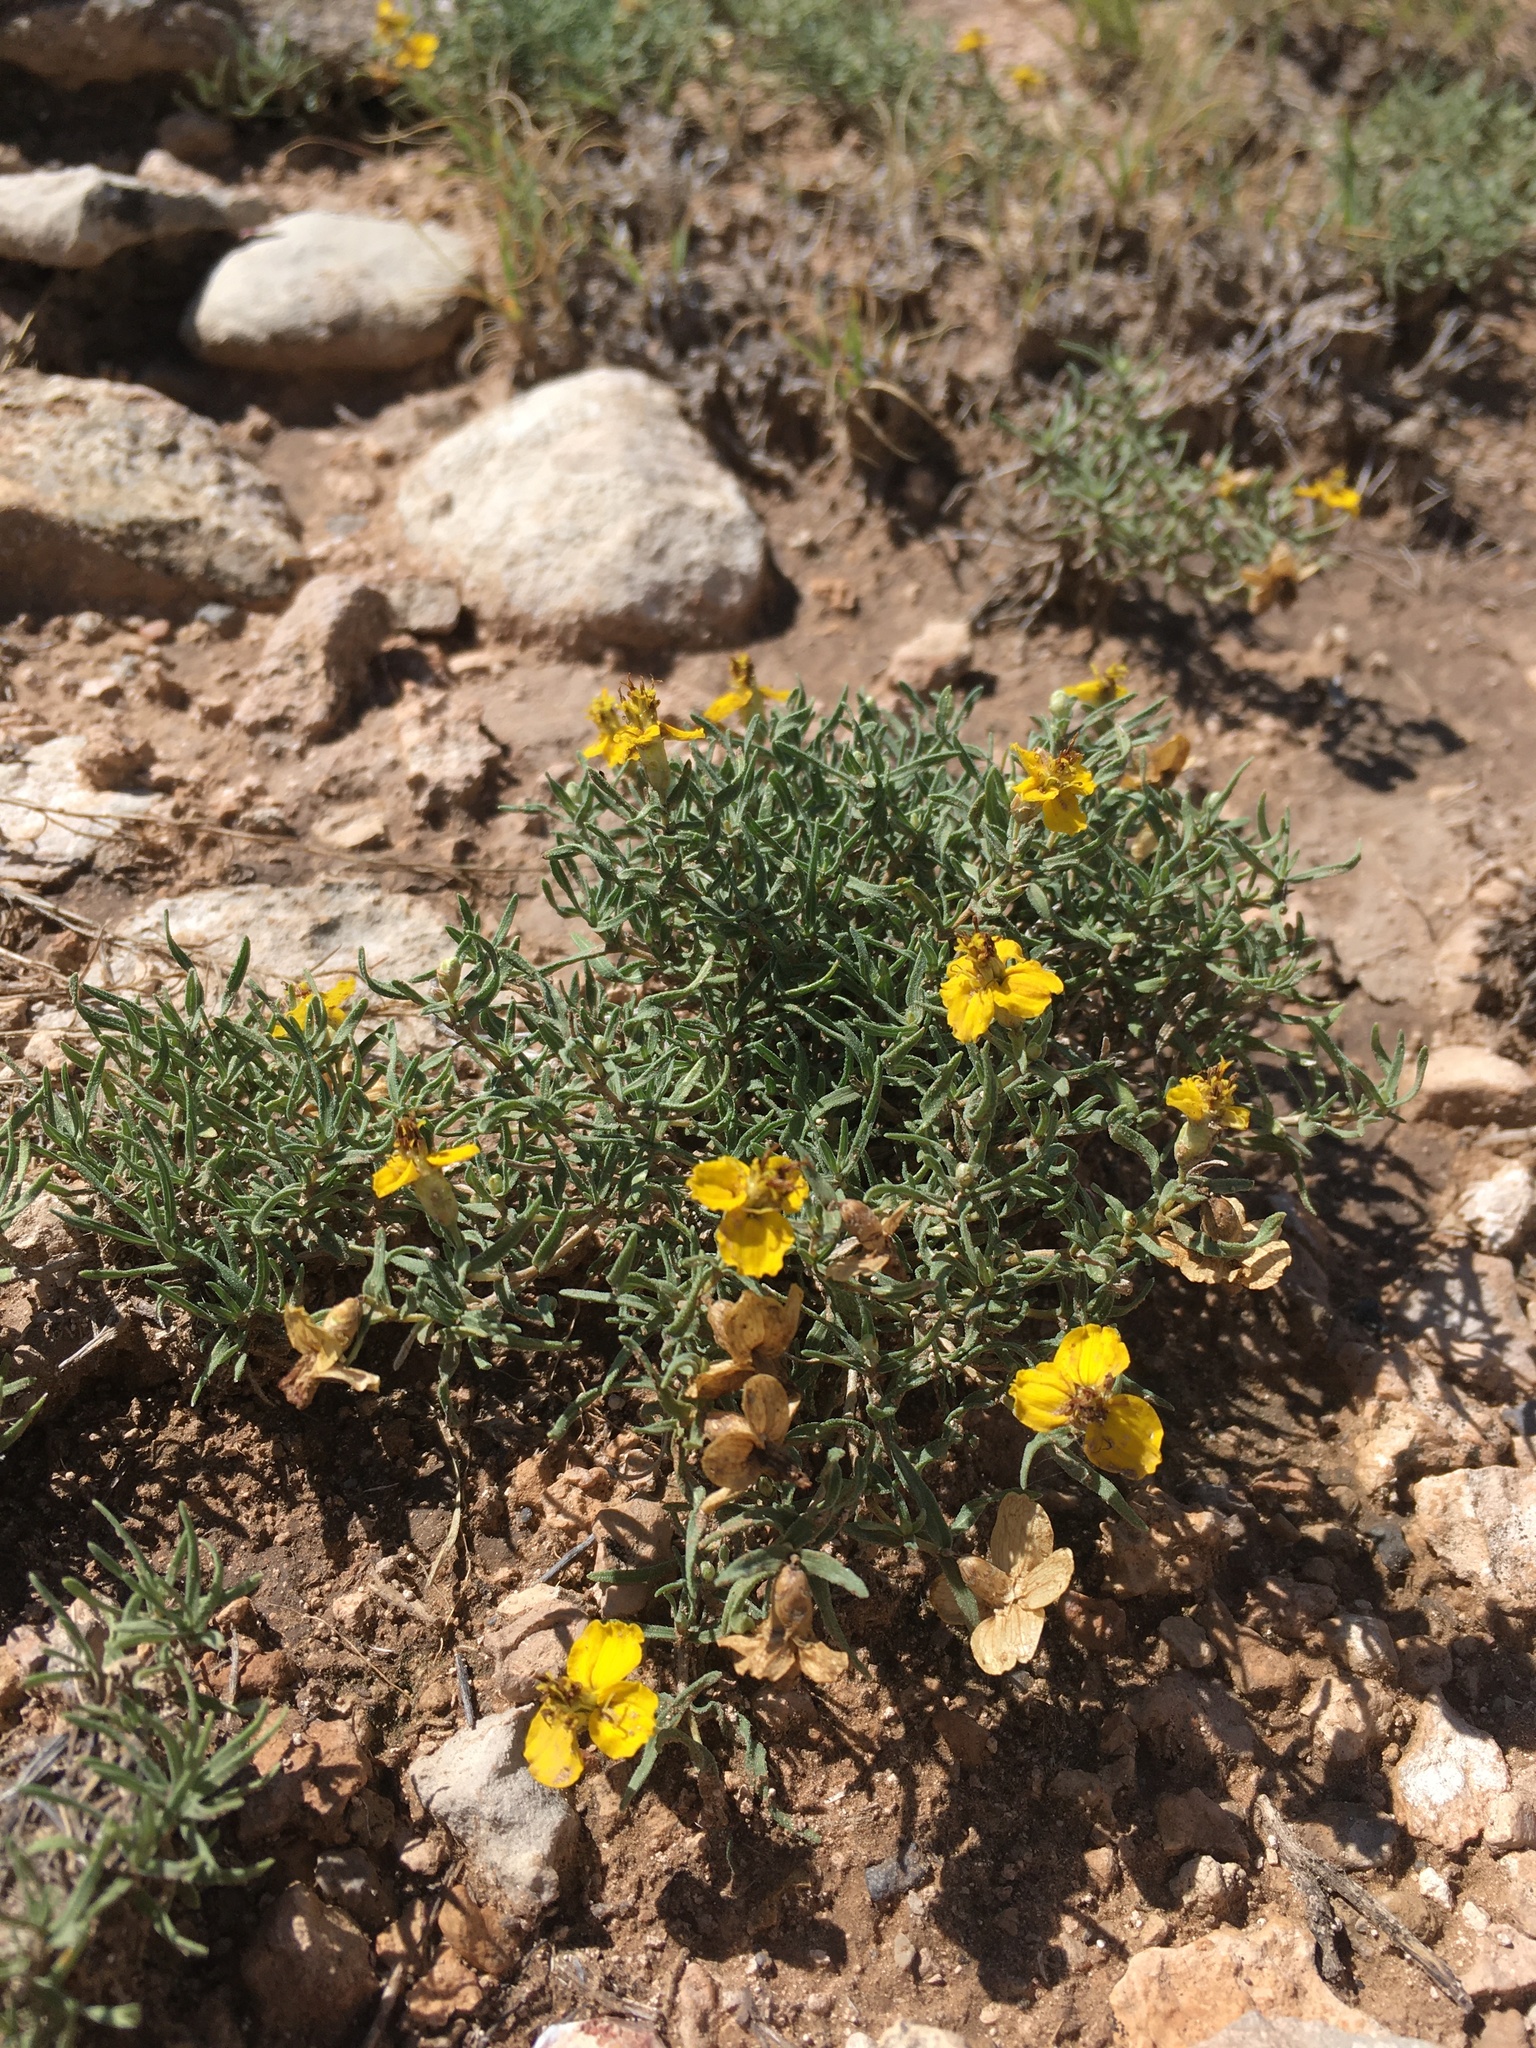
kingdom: Plantae
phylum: Tracheophyta
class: Magnoliopsida
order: Asterales
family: Asteraceae
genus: Zinnia
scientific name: Zinnia grandiflora
